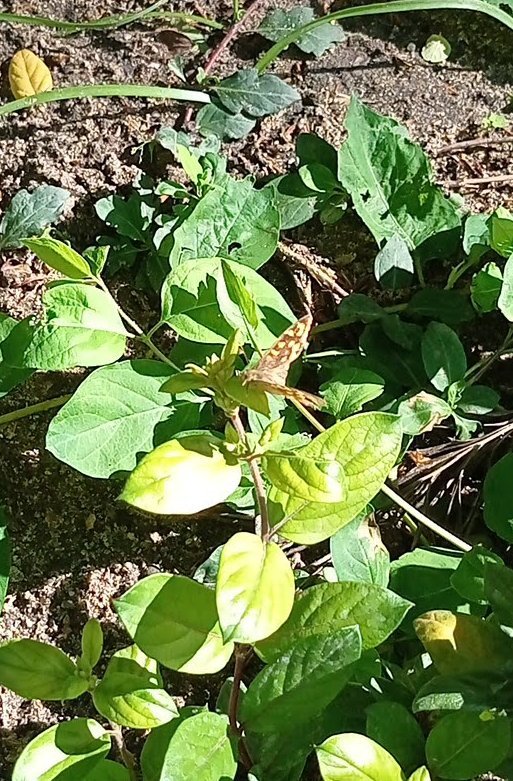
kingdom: Animalia
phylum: Arthropoda
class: Insecta
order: Lepidoptera
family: Nymphalidae
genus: Pararge
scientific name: Pararge aegeria
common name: Speckled wood
